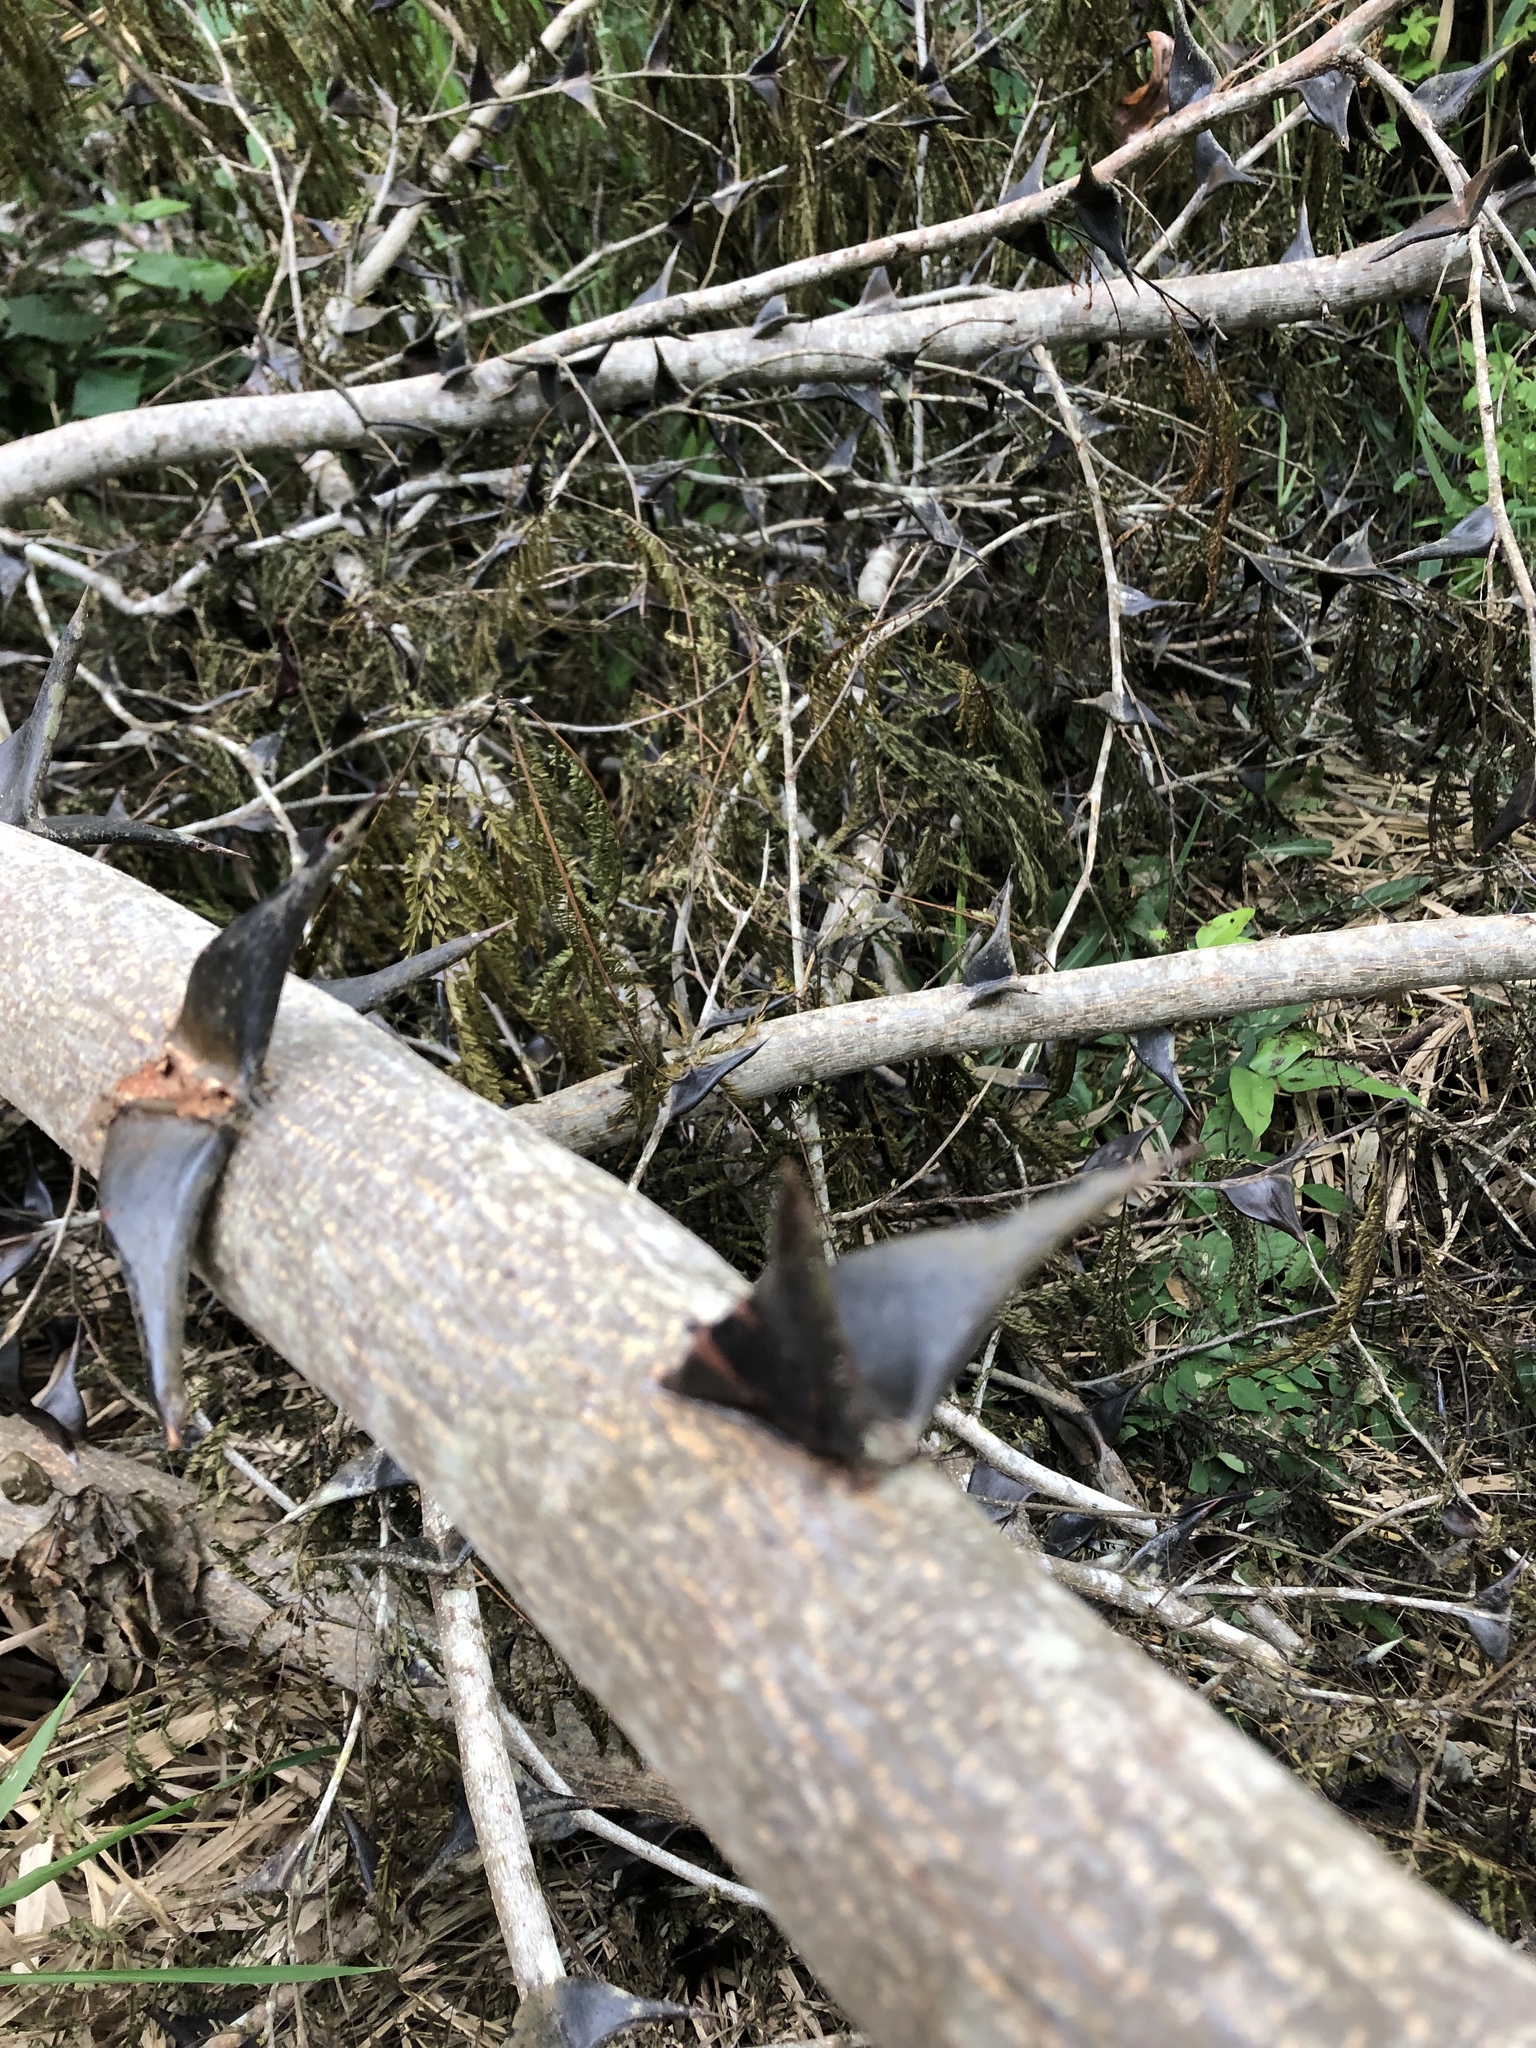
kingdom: Plantae
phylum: Tracheophyta
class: Magnoliopsida
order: Fabales
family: Fabaceae
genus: Vachellia
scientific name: Vachellia cornigera
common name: Bullhorn wattle
